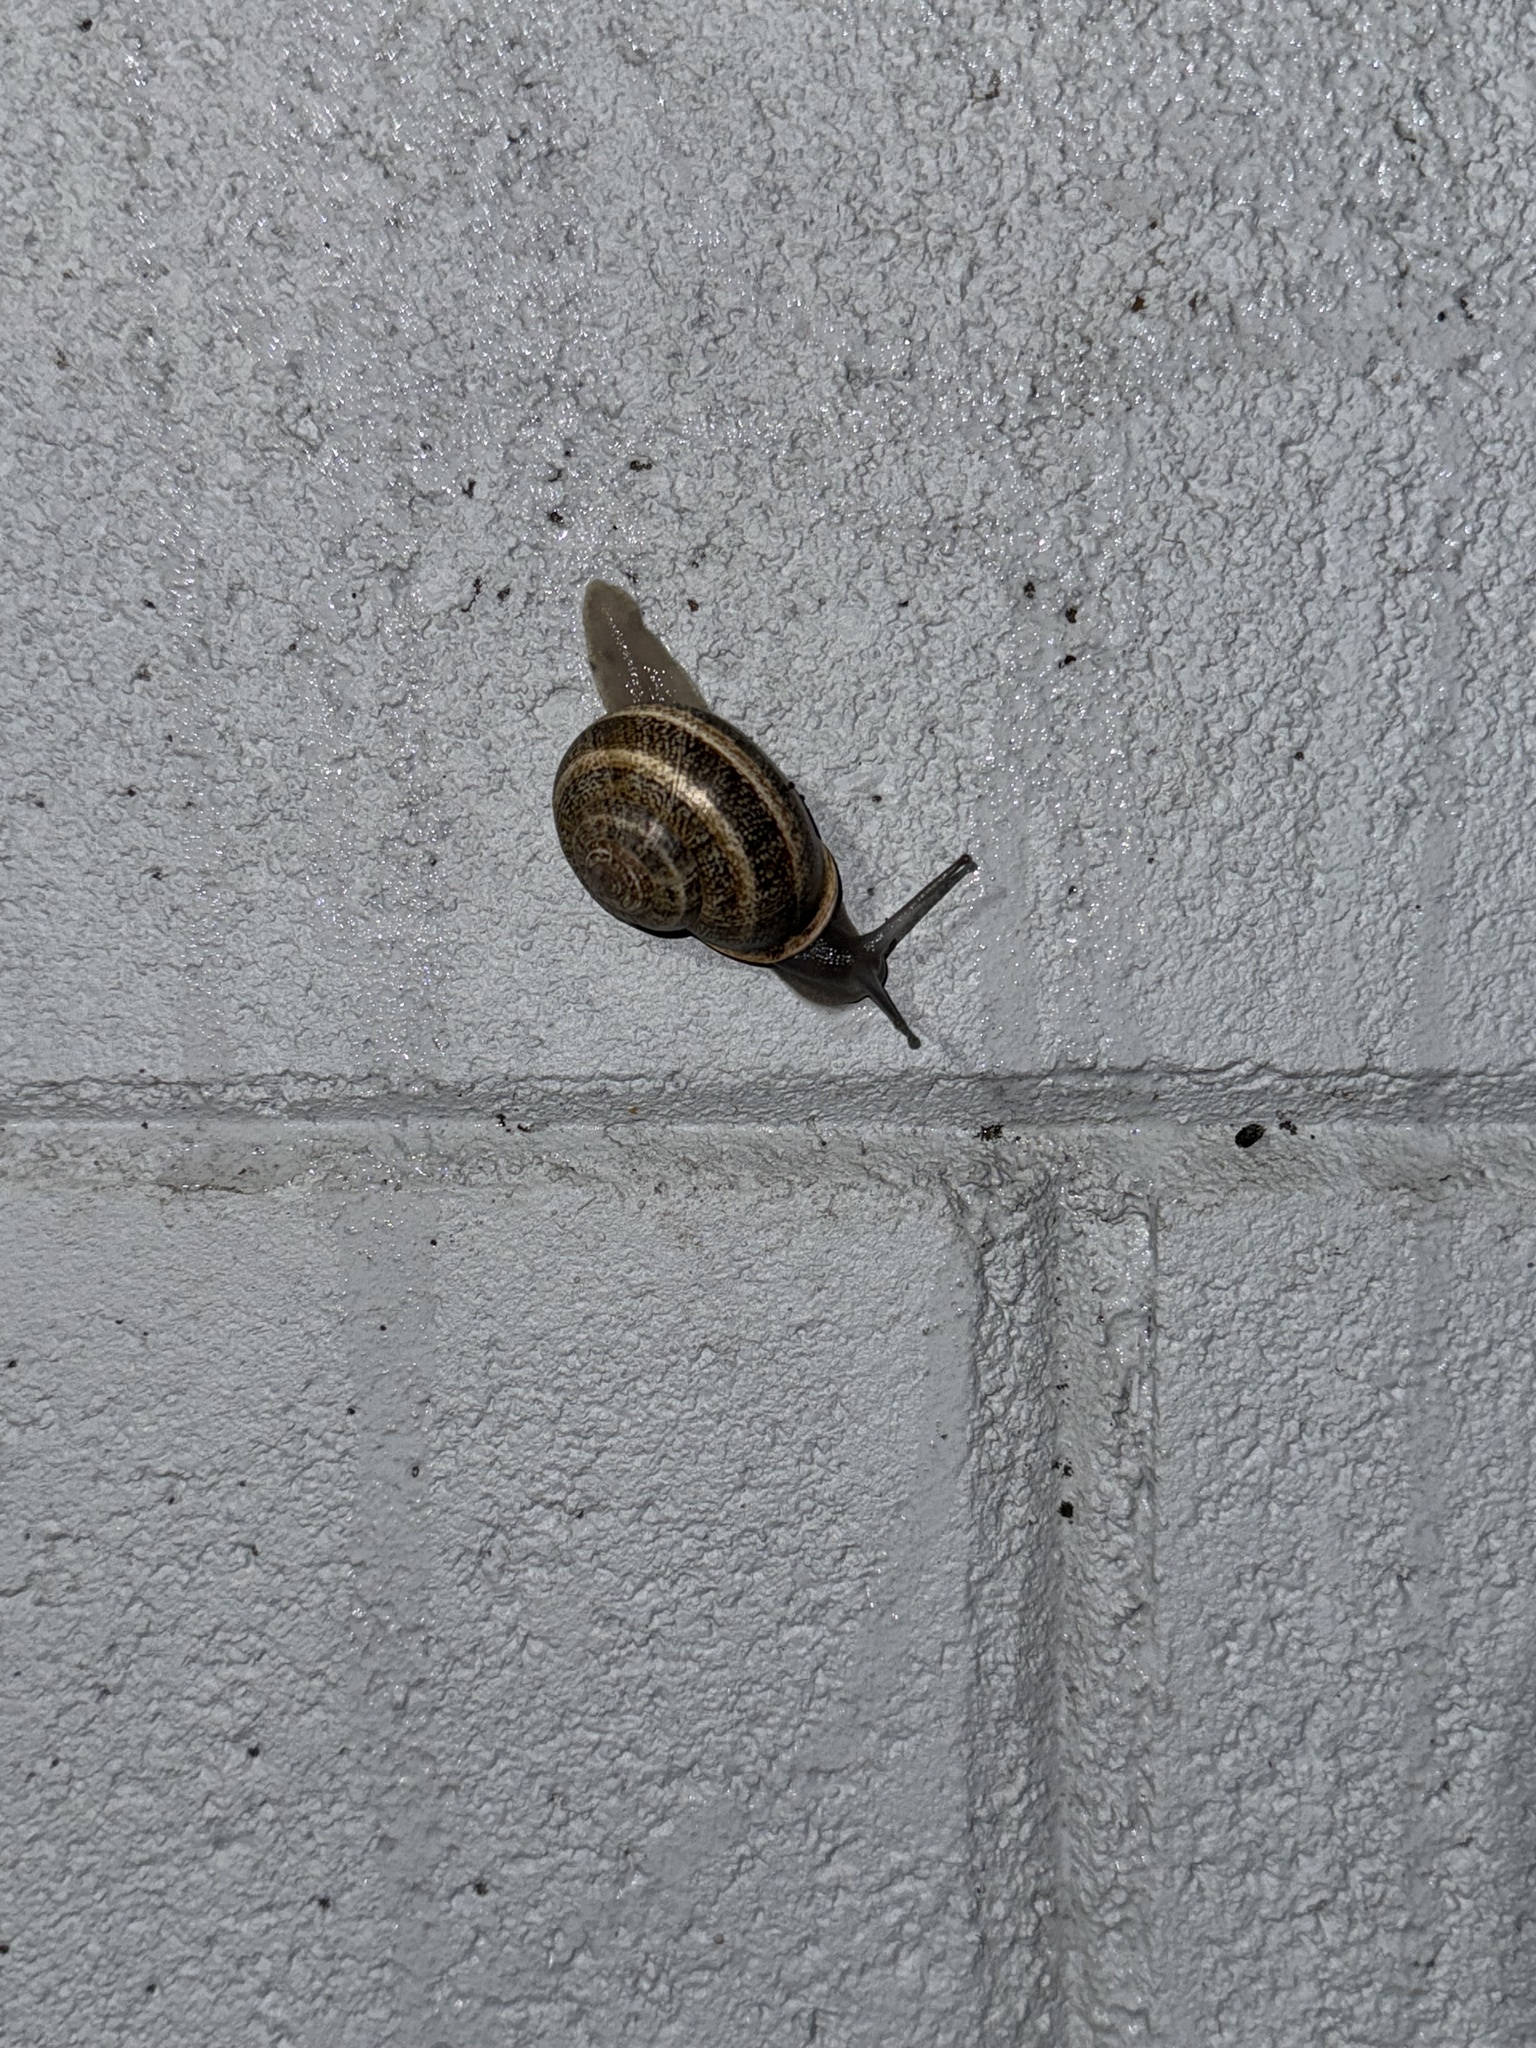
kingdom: Animalia
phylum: Mollusca
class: Gastropoda
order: Stylommatophora
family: Helicidae
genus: Otala
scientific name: Otala lactea
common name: Milk snail
